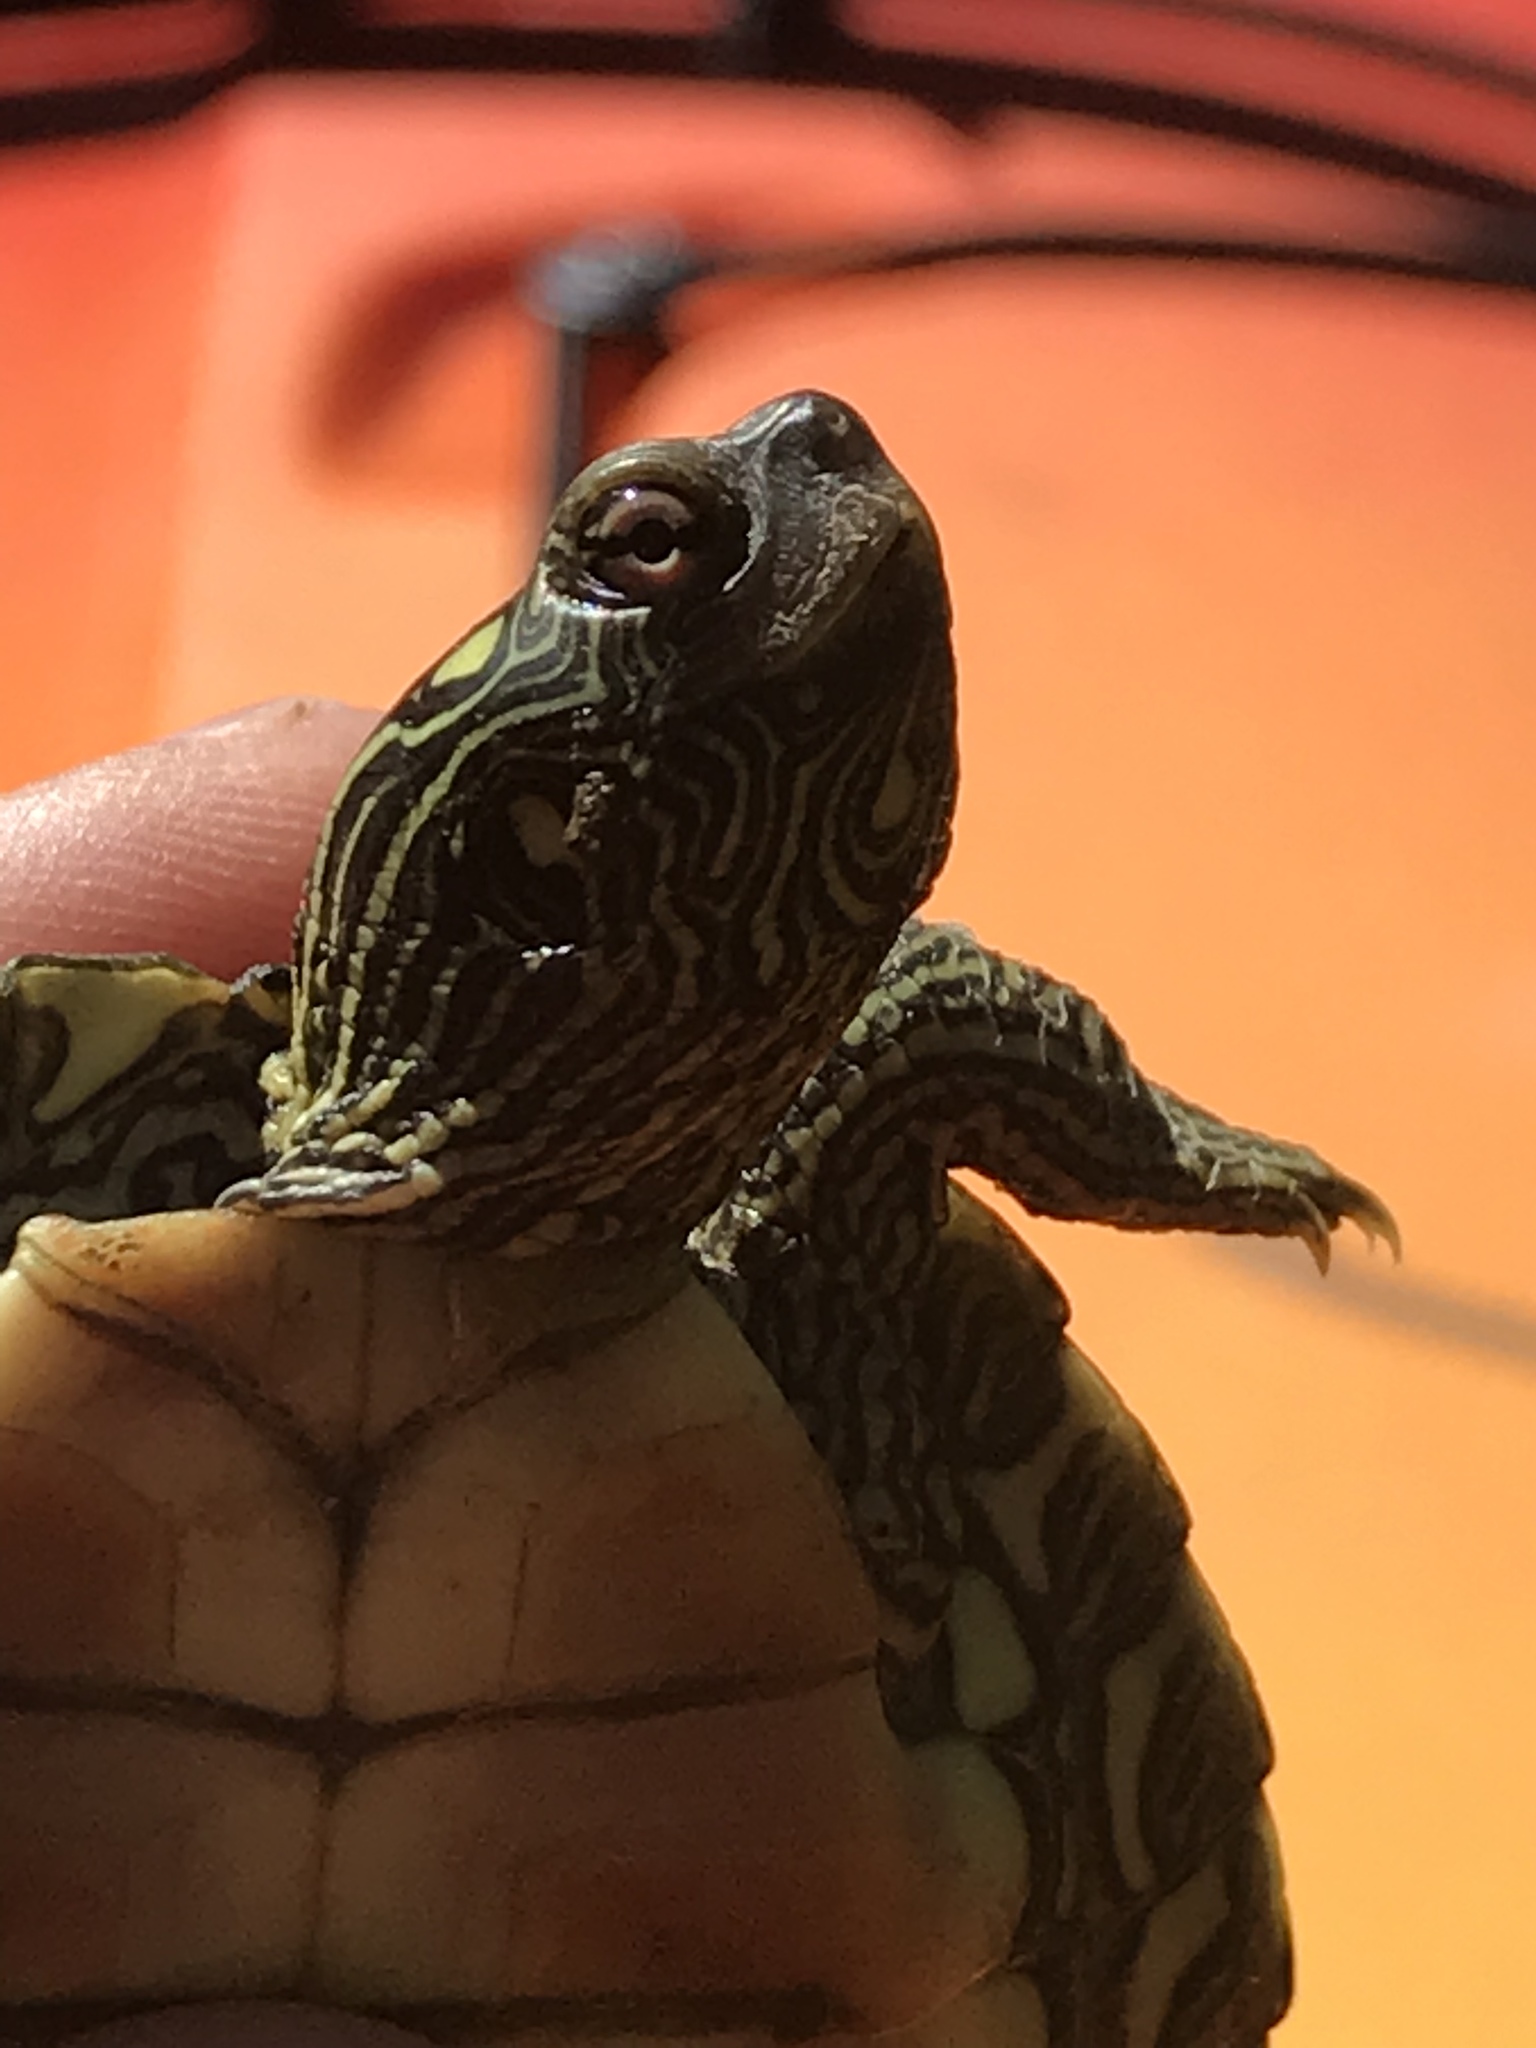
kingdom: Animalia
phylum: Chordata
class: Testudines
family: Emydidae
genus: Graptemys
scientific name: Graptemys geographica
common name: Common map turtle
